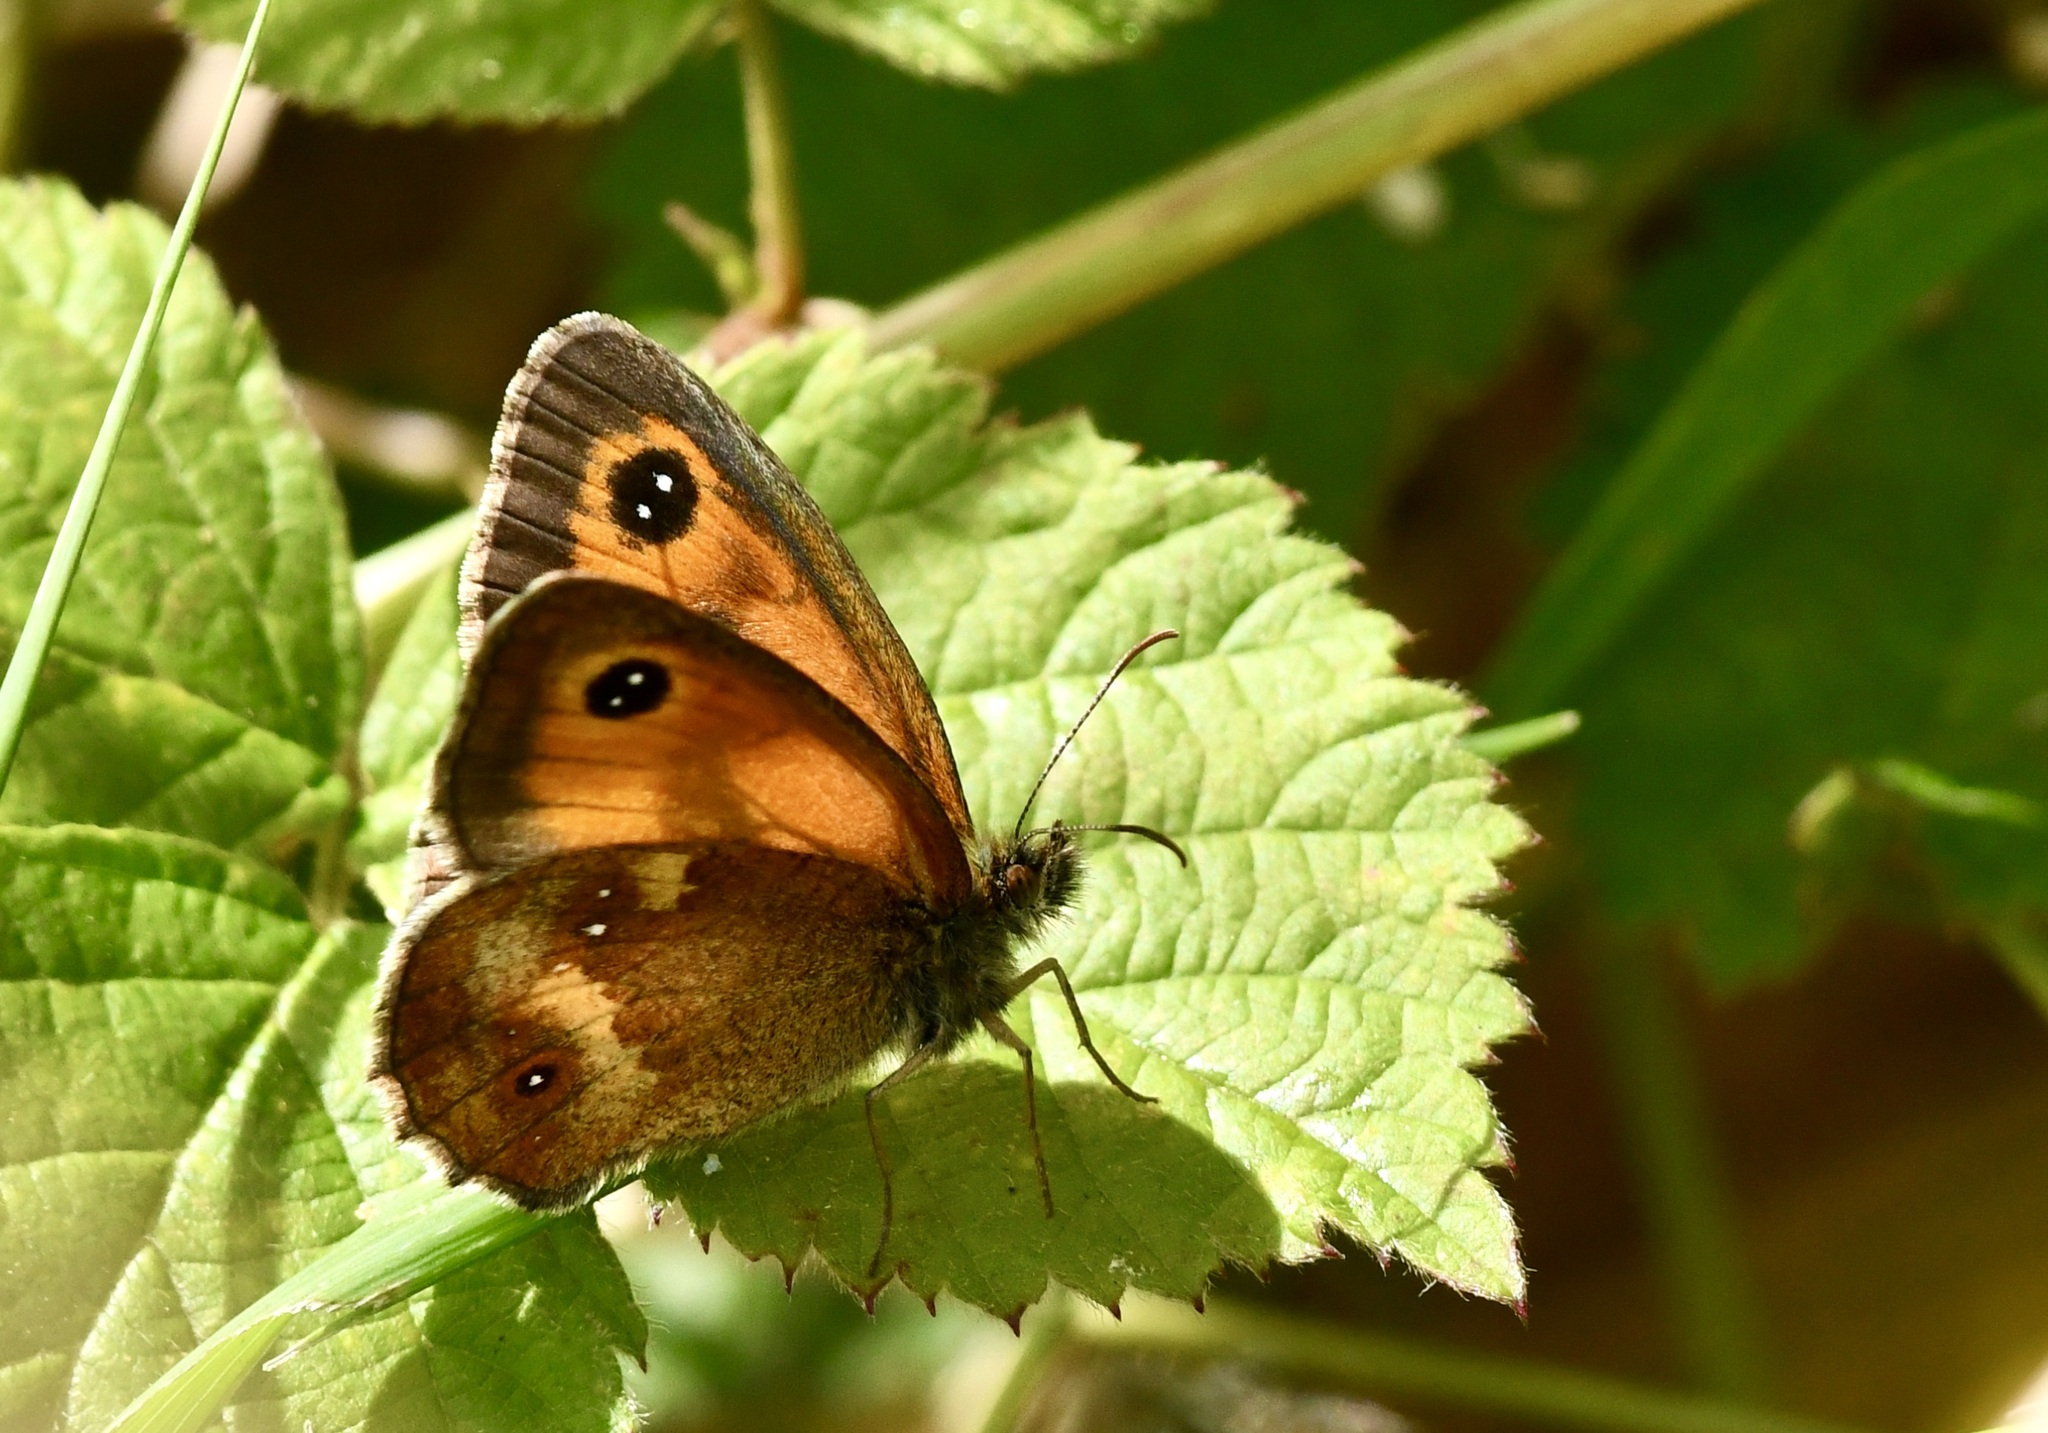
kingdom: Animalia
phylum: Arthropoda
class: Insecta
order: Lepidoptera
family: Nymphalidae
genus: Pyronia
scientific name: Pyronia tithonus
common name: Gatekeeper
